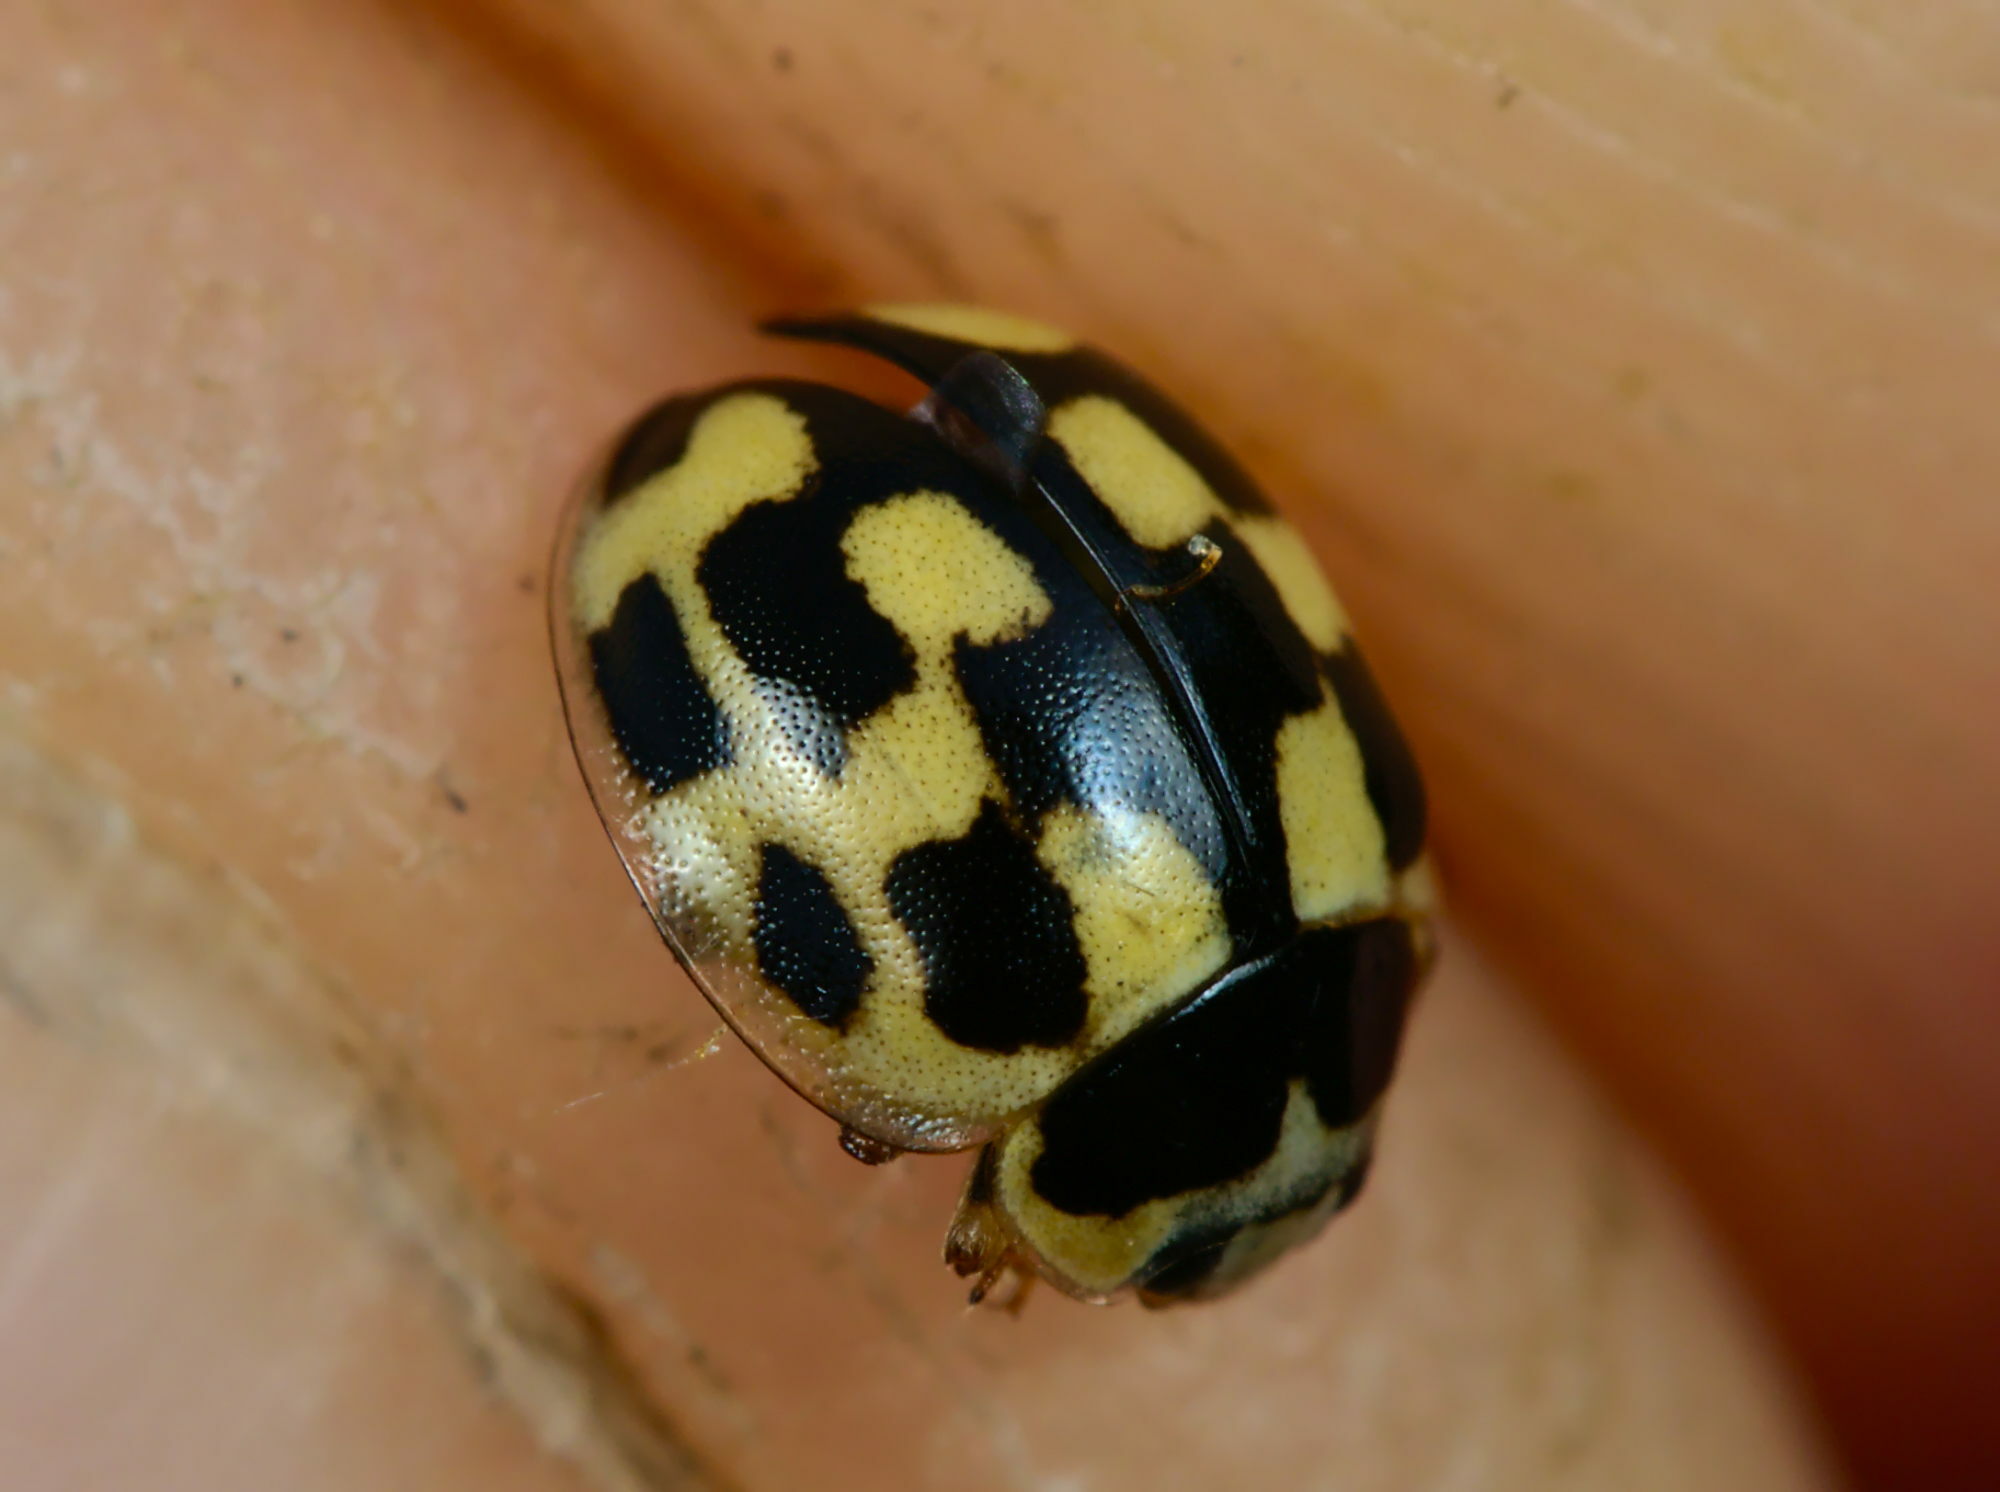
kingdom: Animalia
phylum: Arthropoda
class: Insecta
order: Coleoptera
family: Coccinellidae
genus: Propylaea
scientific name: Propylaea quatuordecimpunctata
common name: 14-spotted ladybird beetle
